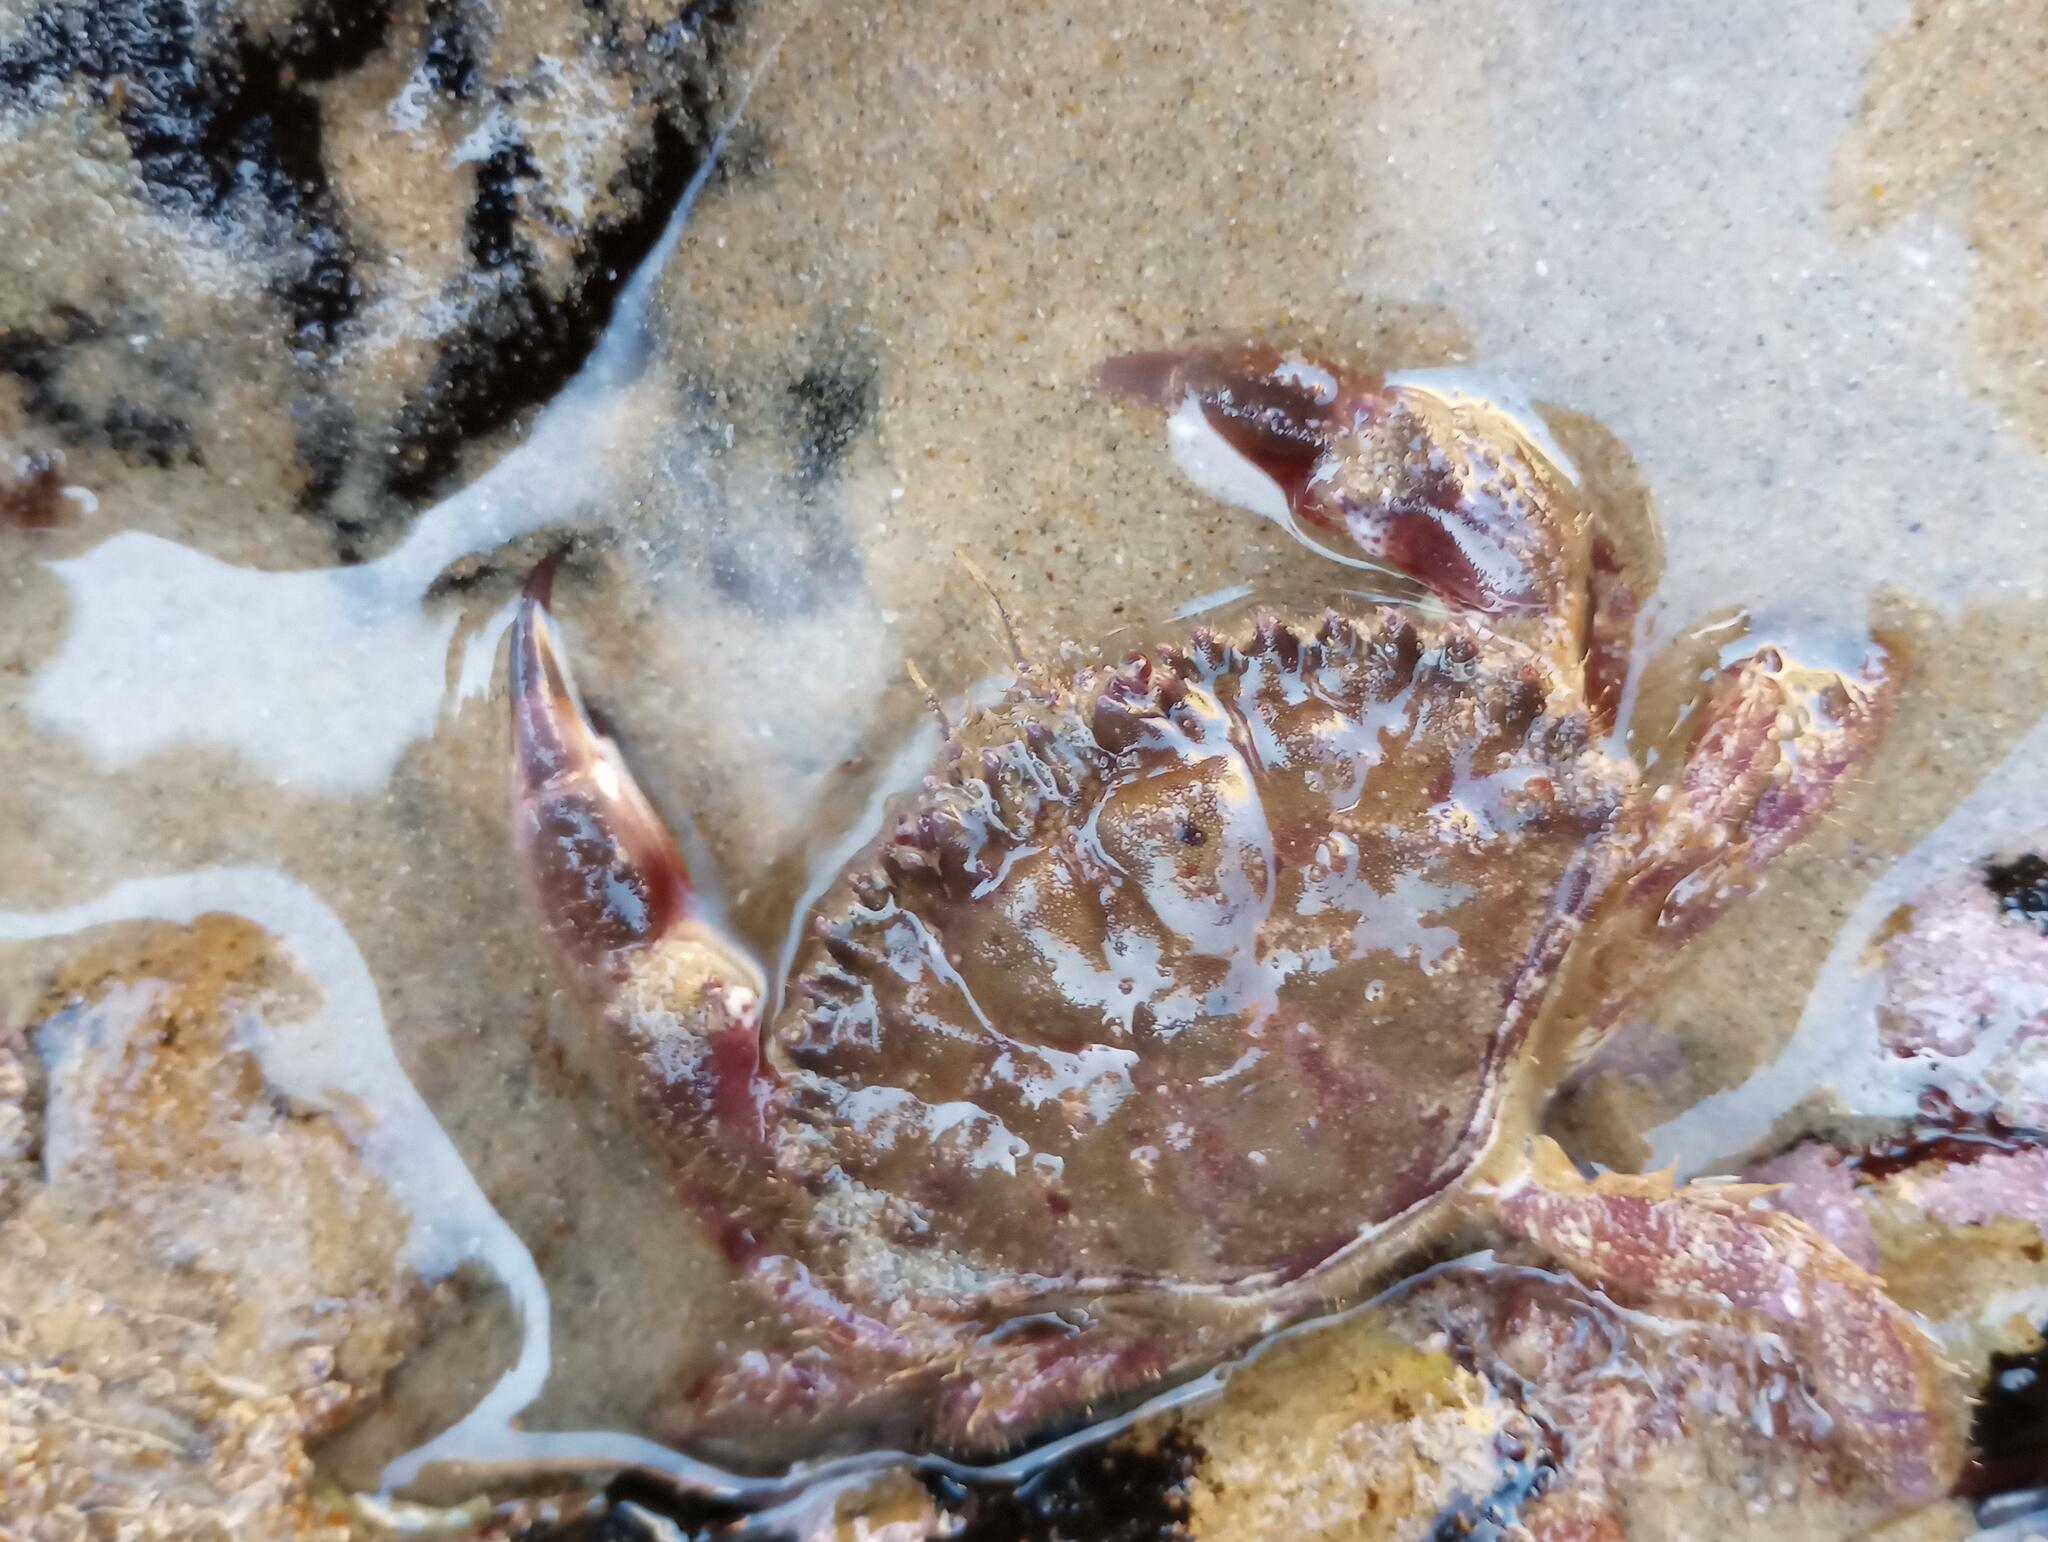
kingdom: Animalia
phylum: Arthropoda
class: Malacostraca
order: Decapoda
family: Cancridae
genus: Romaleon
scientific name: Romaleon antennarium
